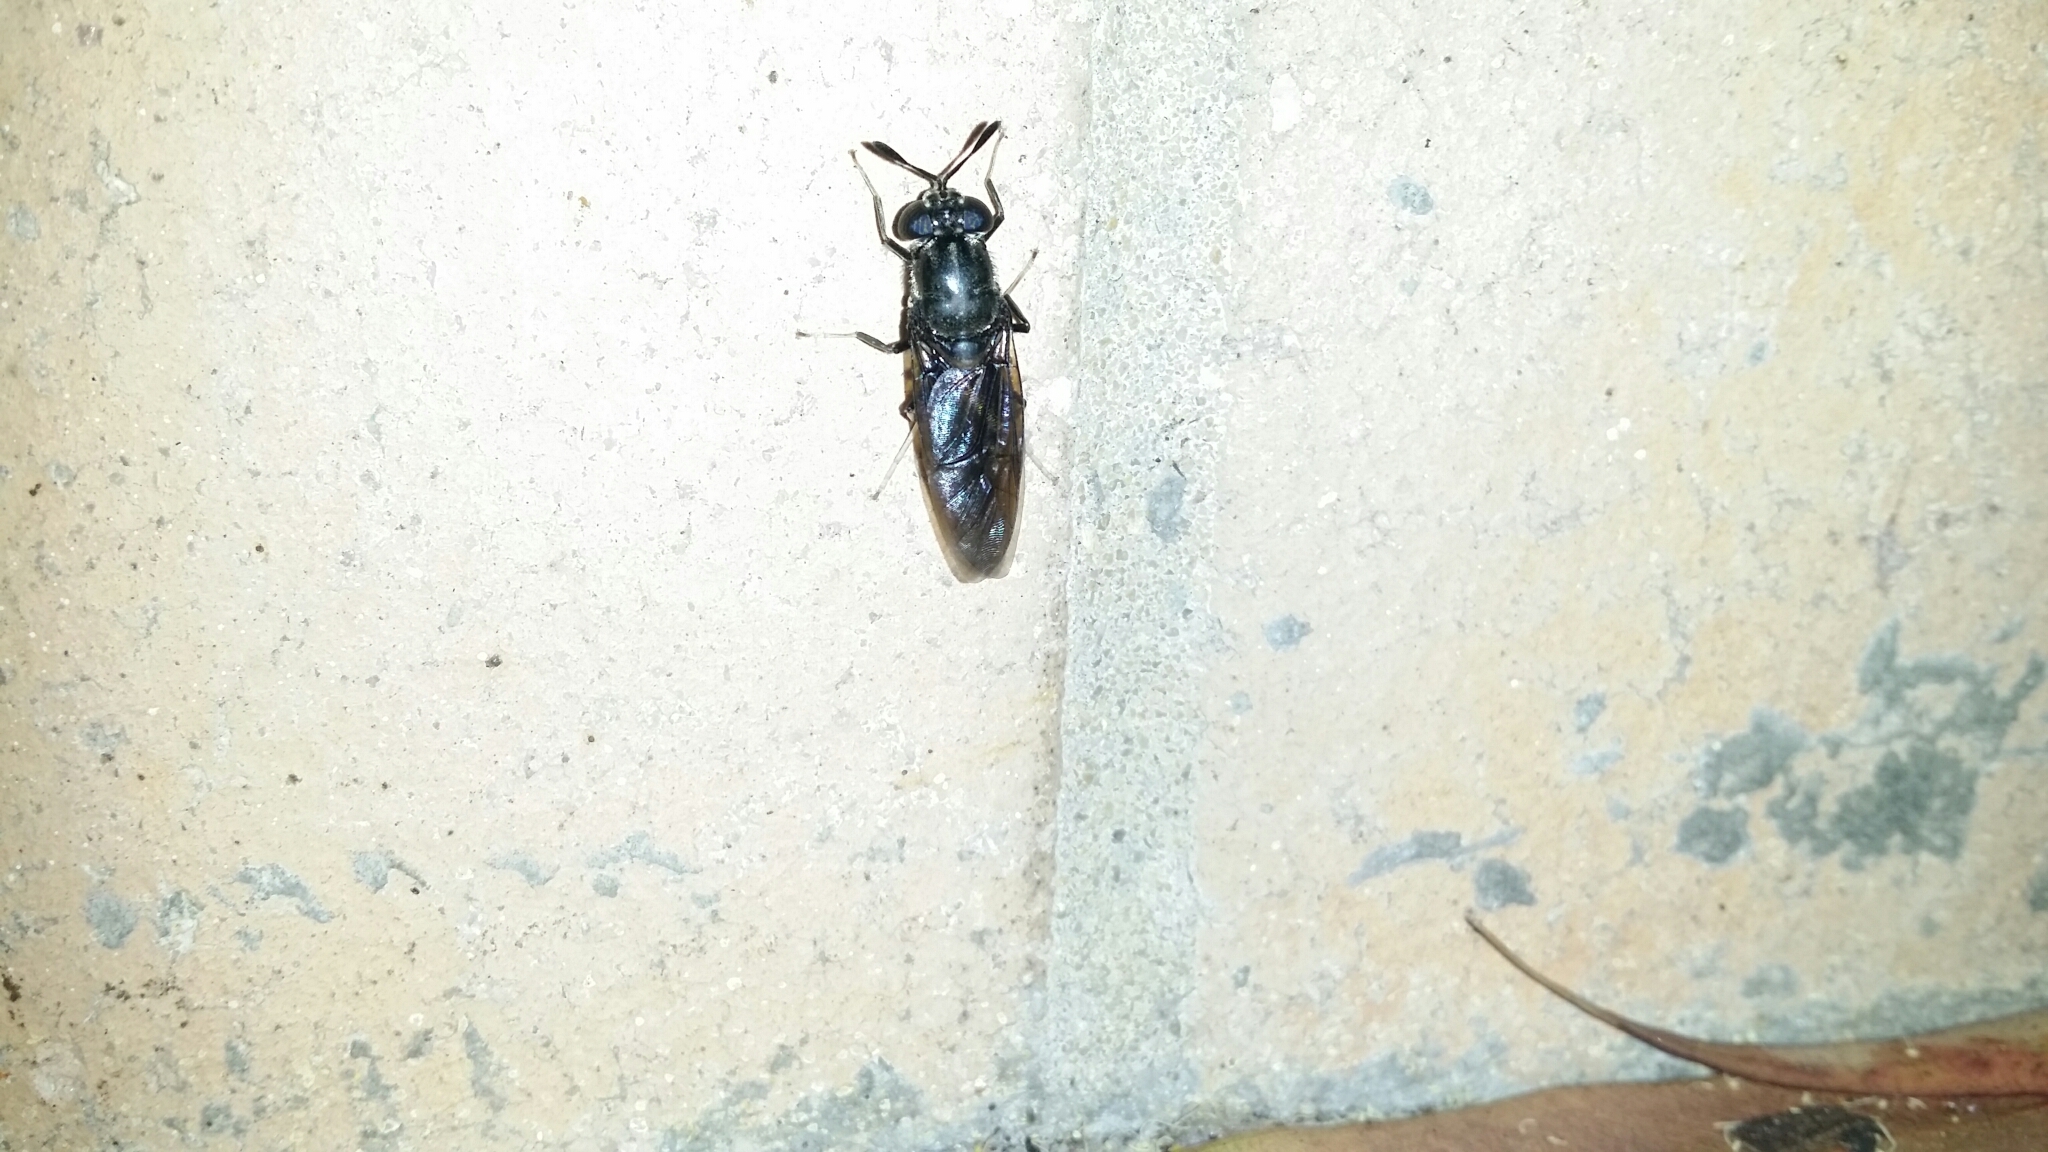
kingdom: Animalia
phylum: Arthropoda
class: Insecta
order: Diptera
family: Stratiomyidae
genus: Hermetia
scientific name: Hermetia illucens
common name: Black soldier fly
